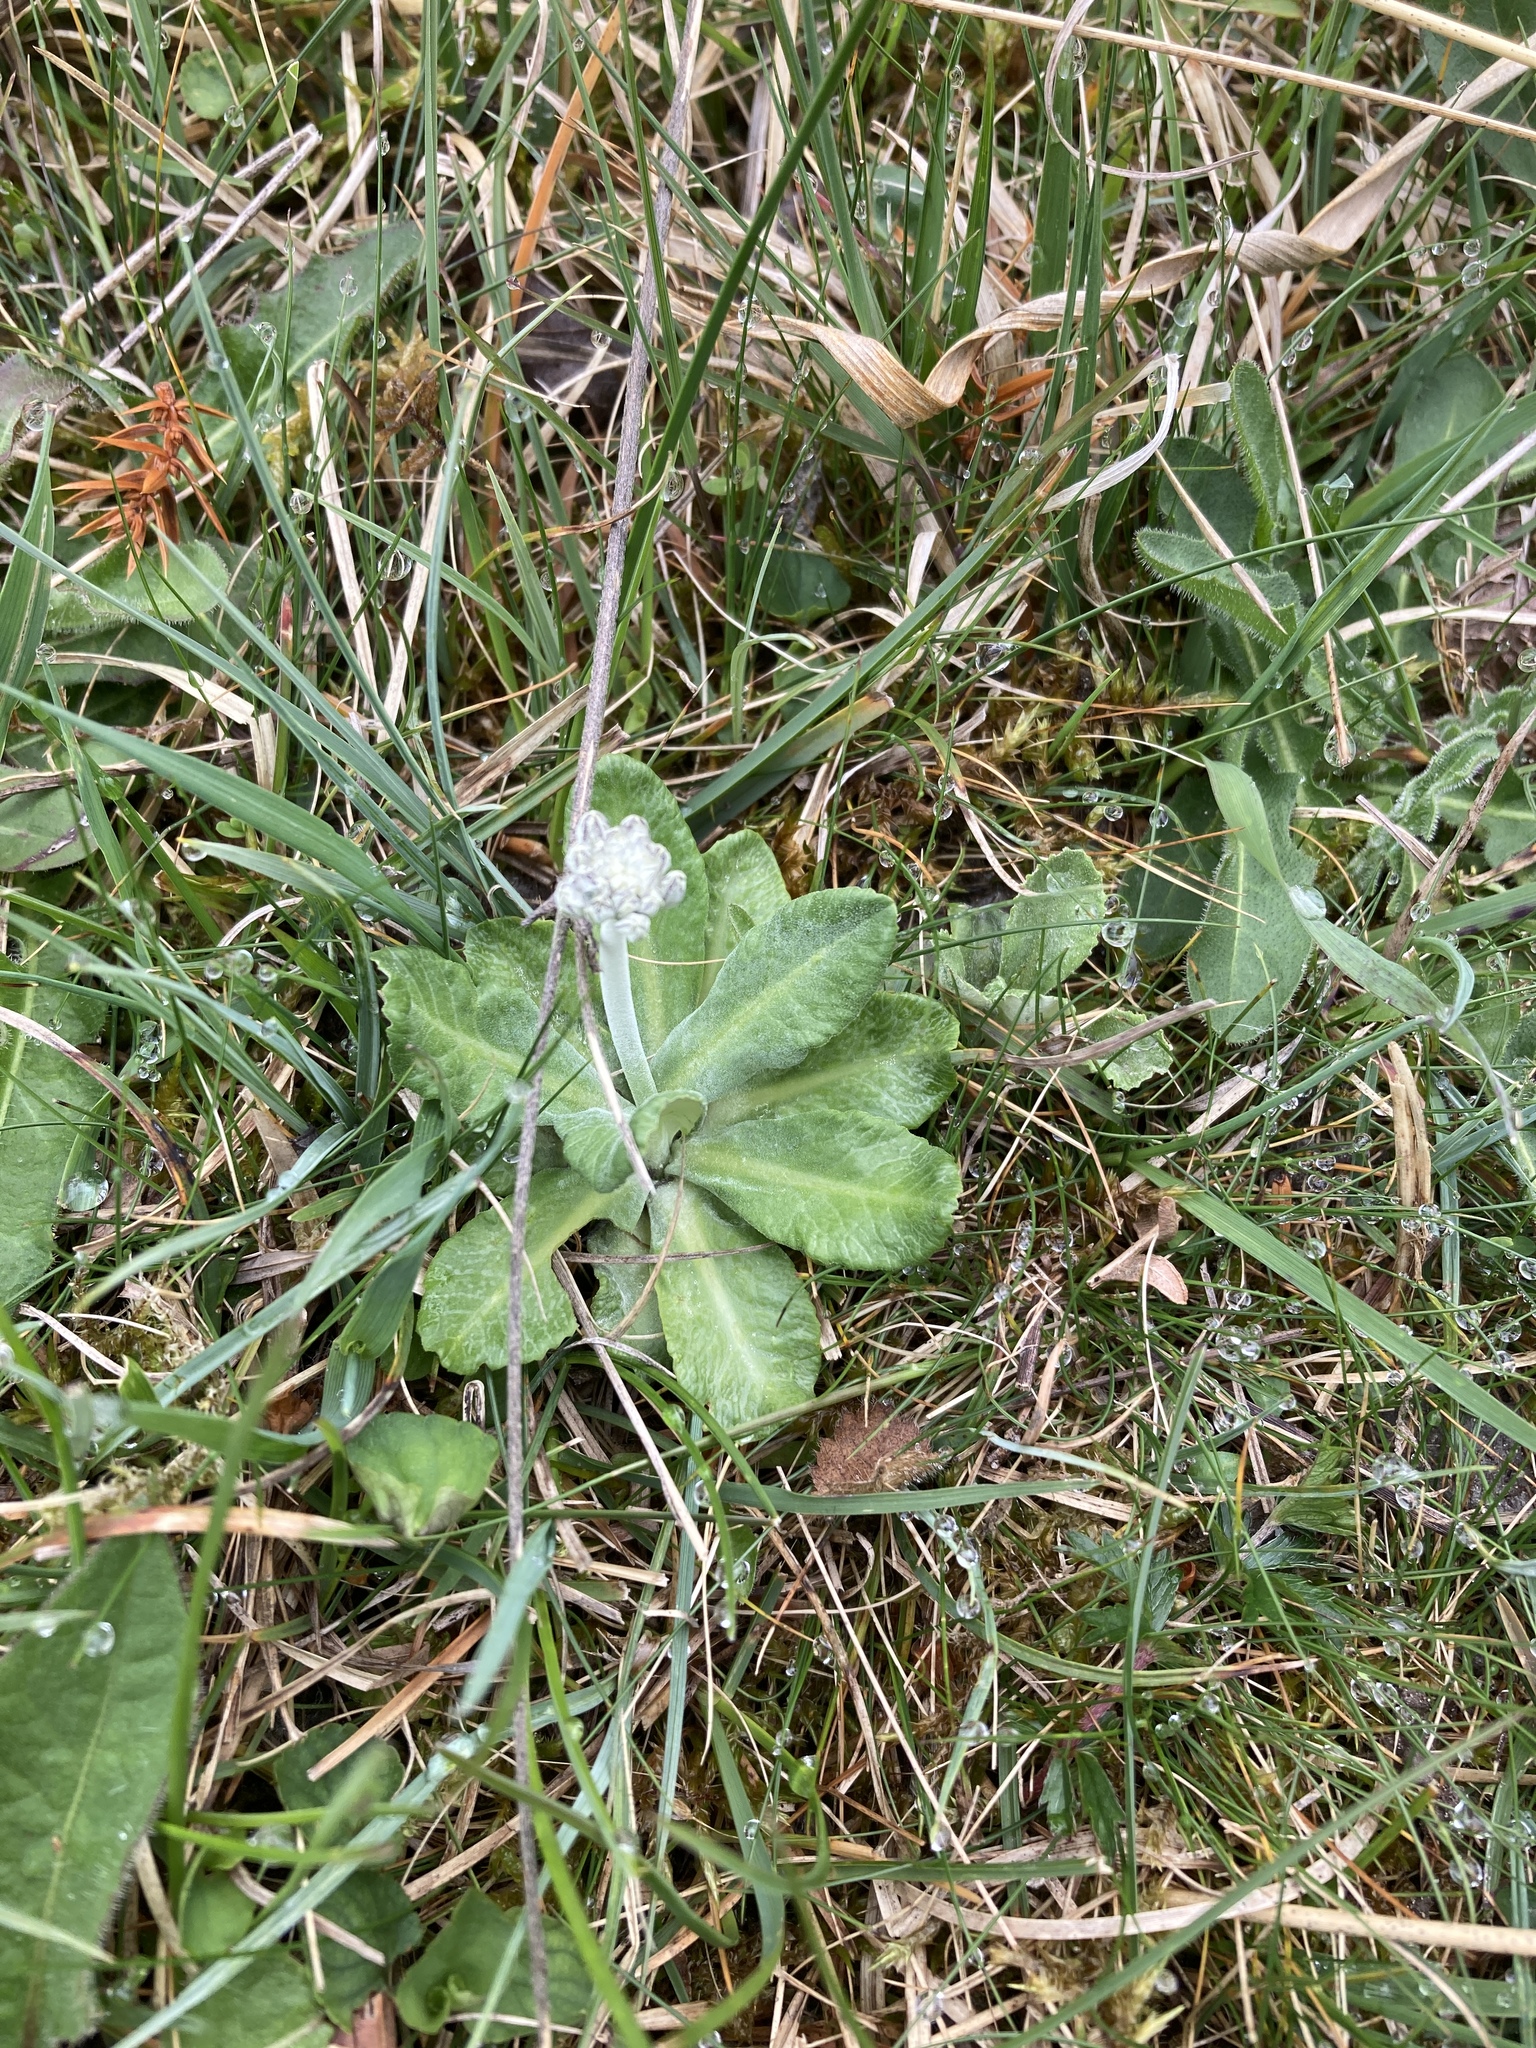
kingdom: Plantae
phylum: Tracheophyta
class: Magnoliopsida
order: Ericales
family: Primulaceae
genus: Primula
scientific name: Primula farinosa
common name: Bird's-eye primrose
